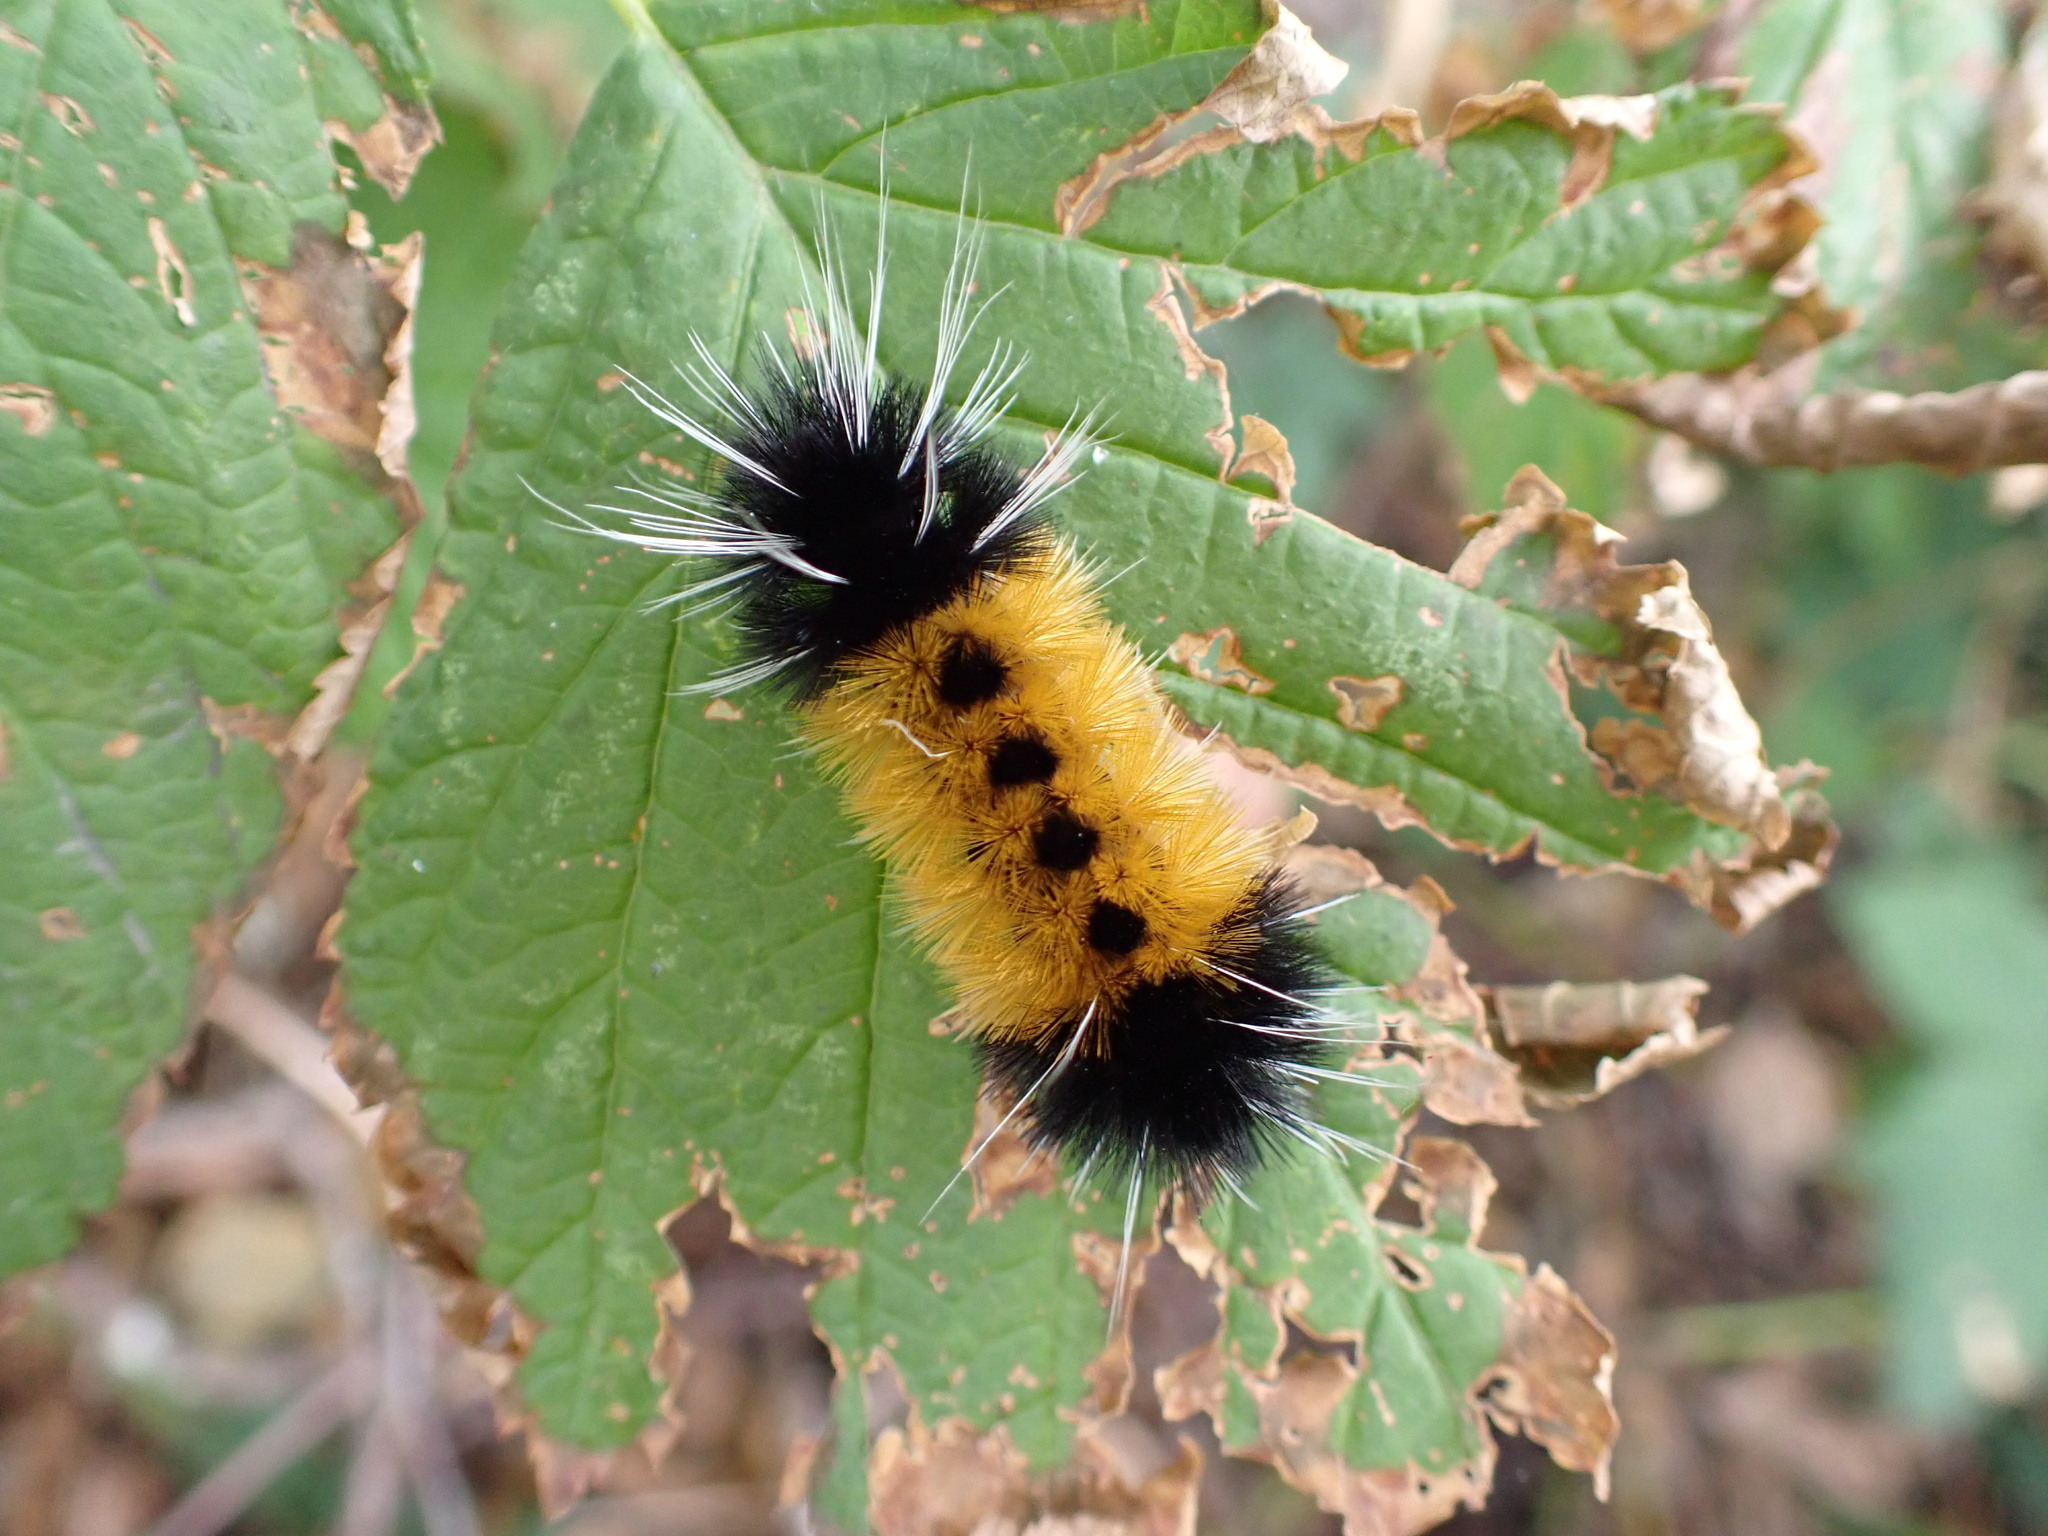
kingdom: Animalia
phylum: Arthropoda
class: Insecta
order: Lepidoptera
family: Erebidae
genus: Lophocampa
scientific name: Lophocampa maculata
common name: Spotted tussock moth
